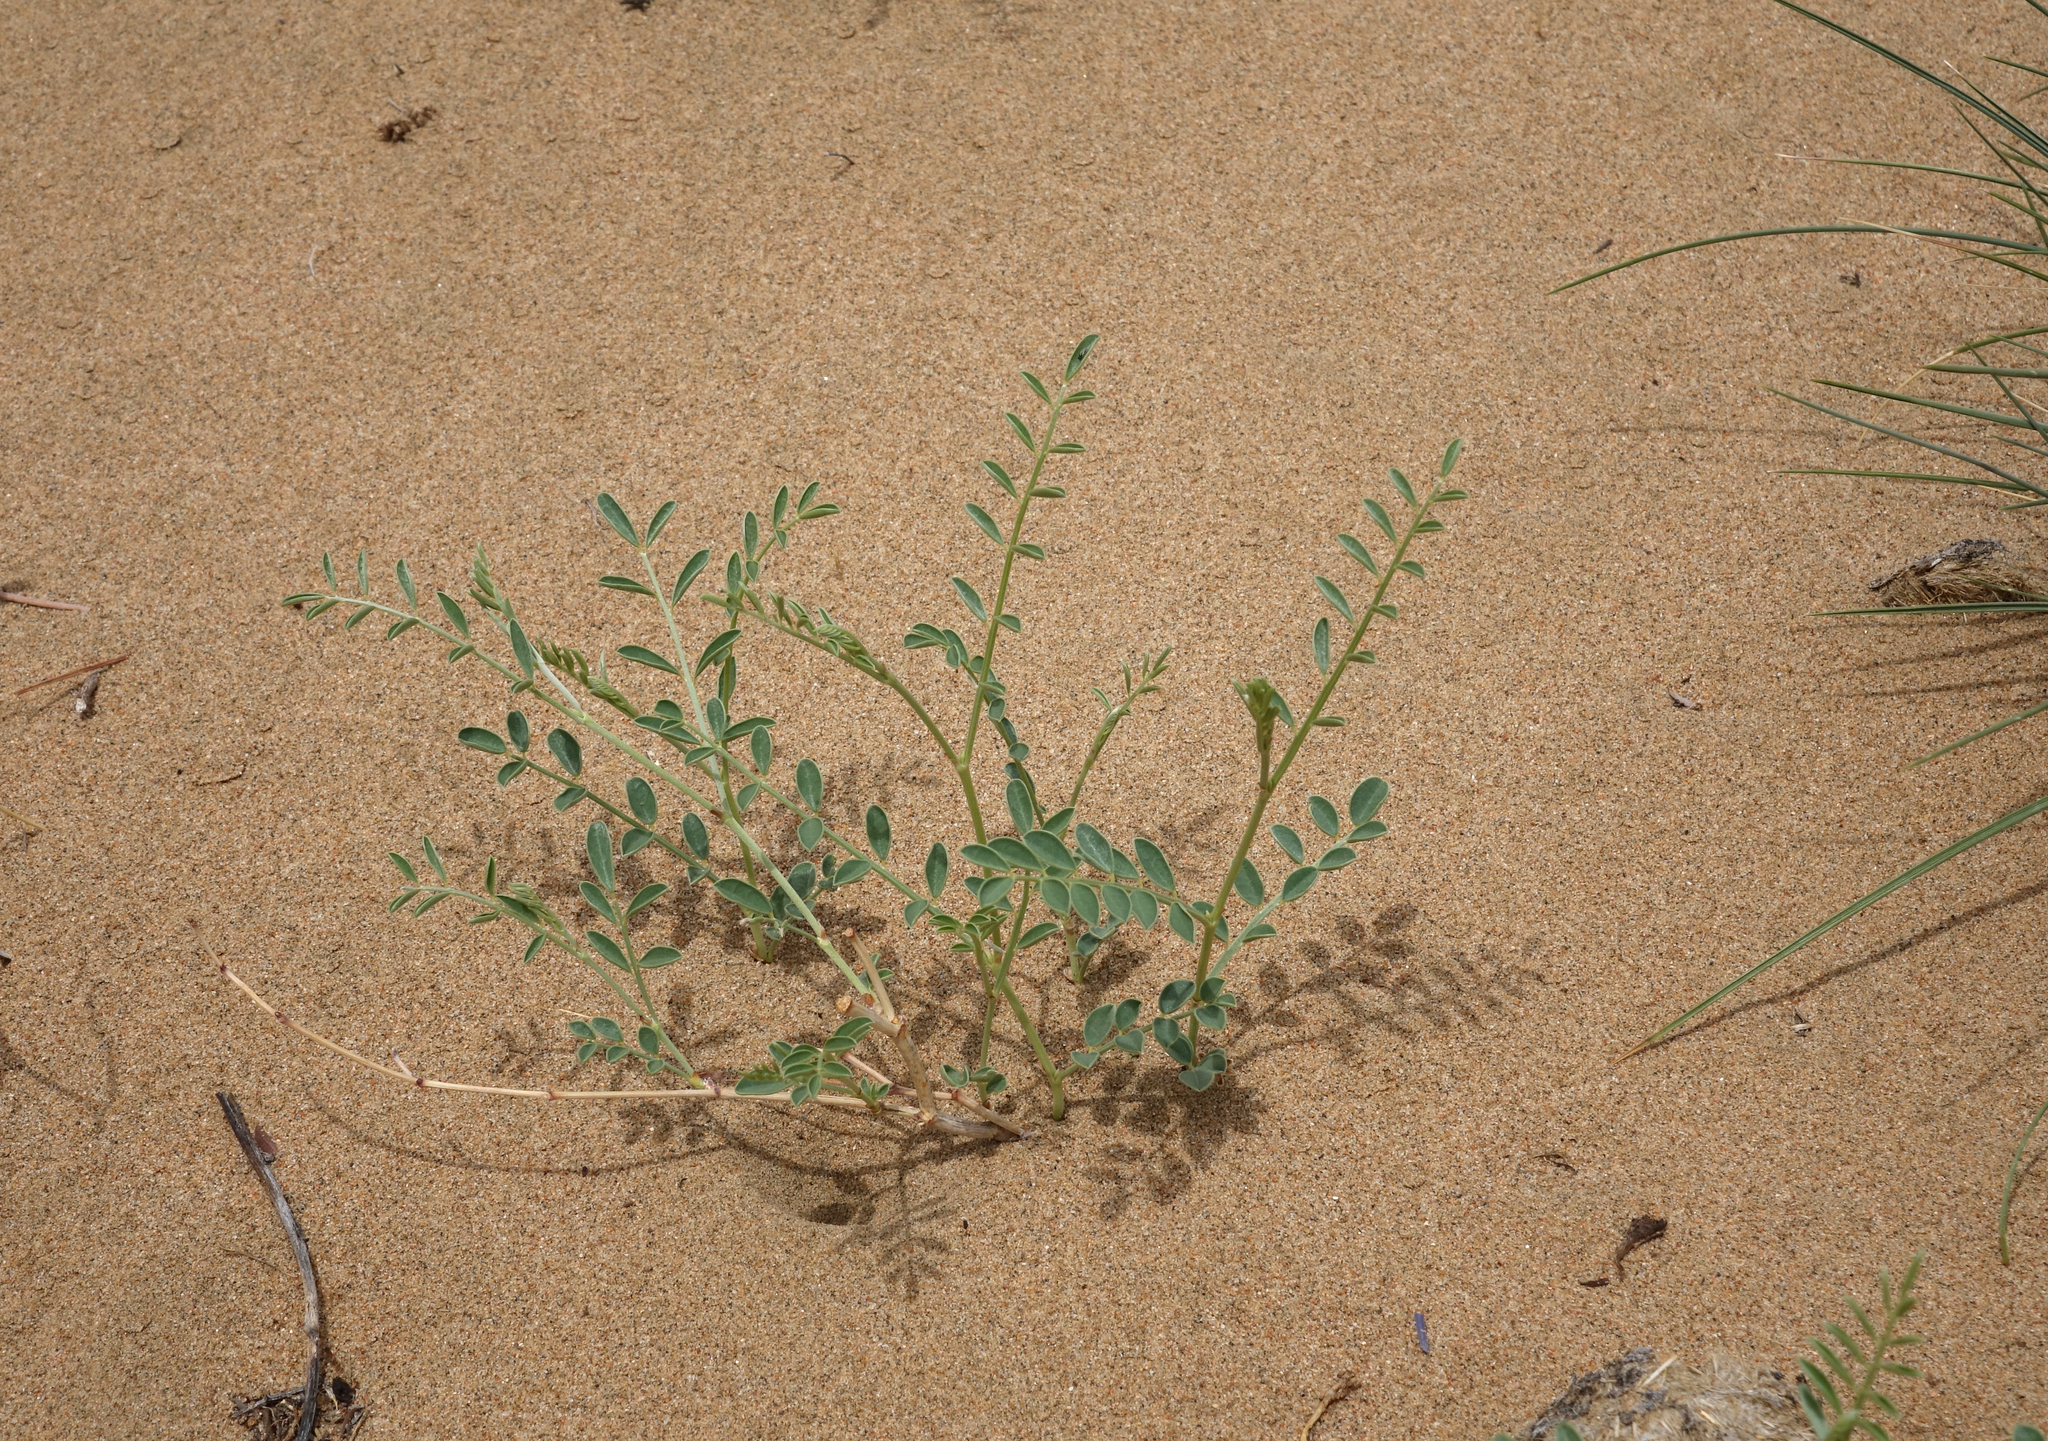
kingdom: Plantae
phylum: Tracheophyta
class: Magnoliopsida
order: Fabales
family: Fabaceae
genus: Corethrodendron
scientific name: Corethrodendron fruticosum
